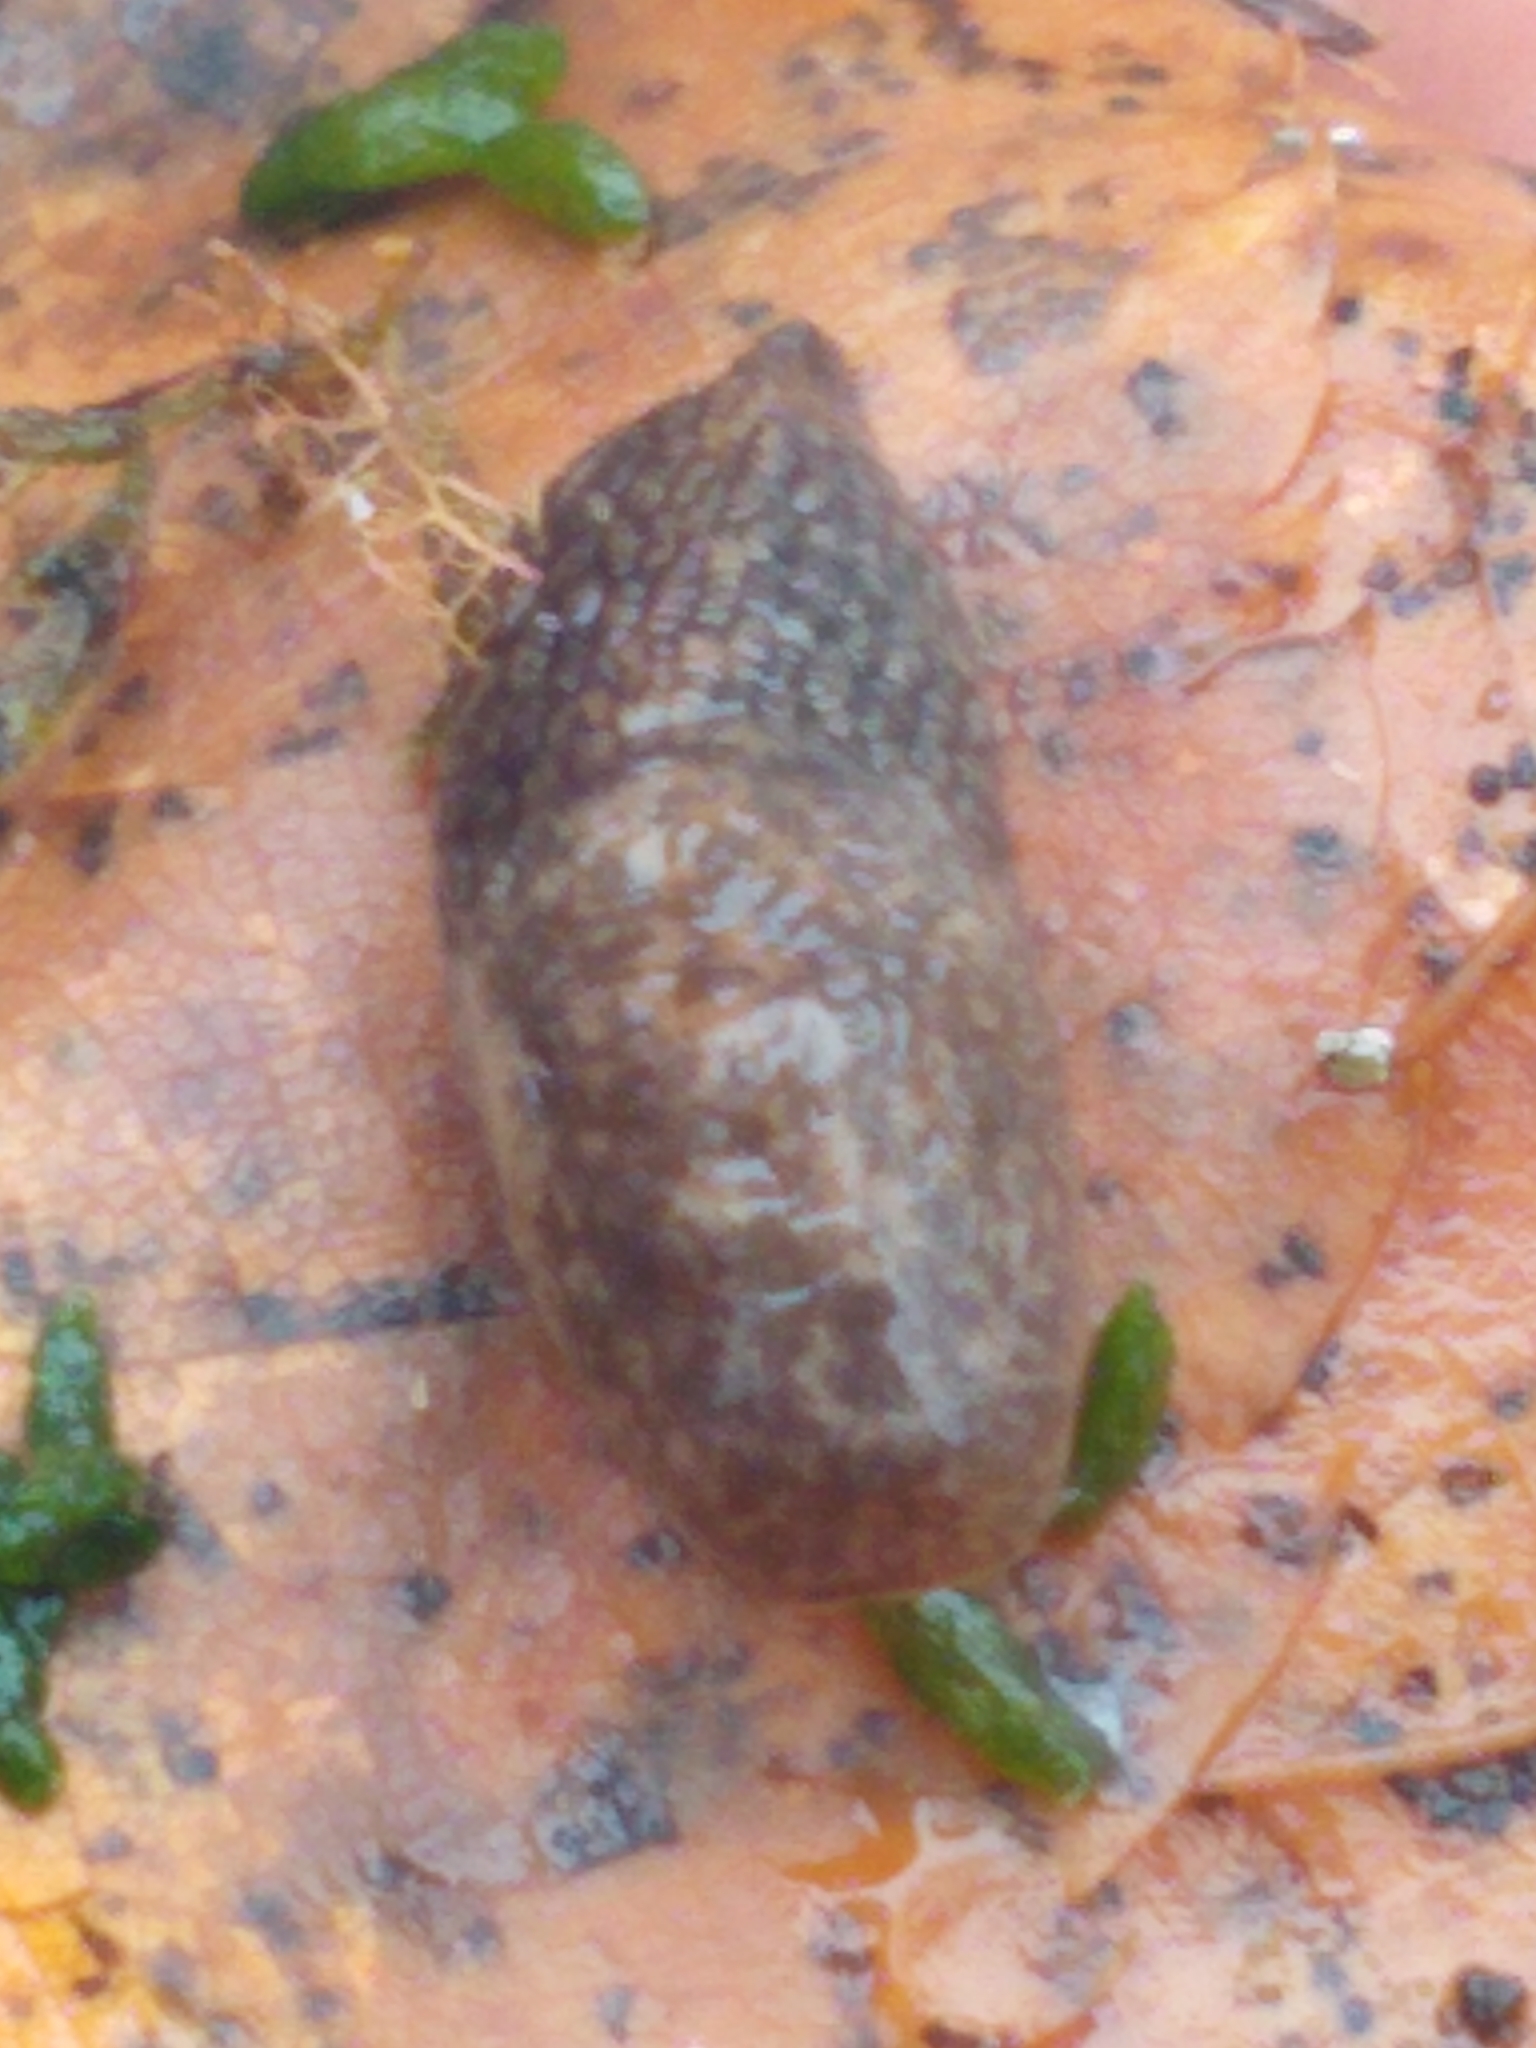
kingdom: Animalia
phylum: Mollusca
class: Gastropoda
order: Stylommatophora
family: Agriolimacidae
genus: Deroceras
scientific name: Deroceras reticulatum
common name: Gray field slug
